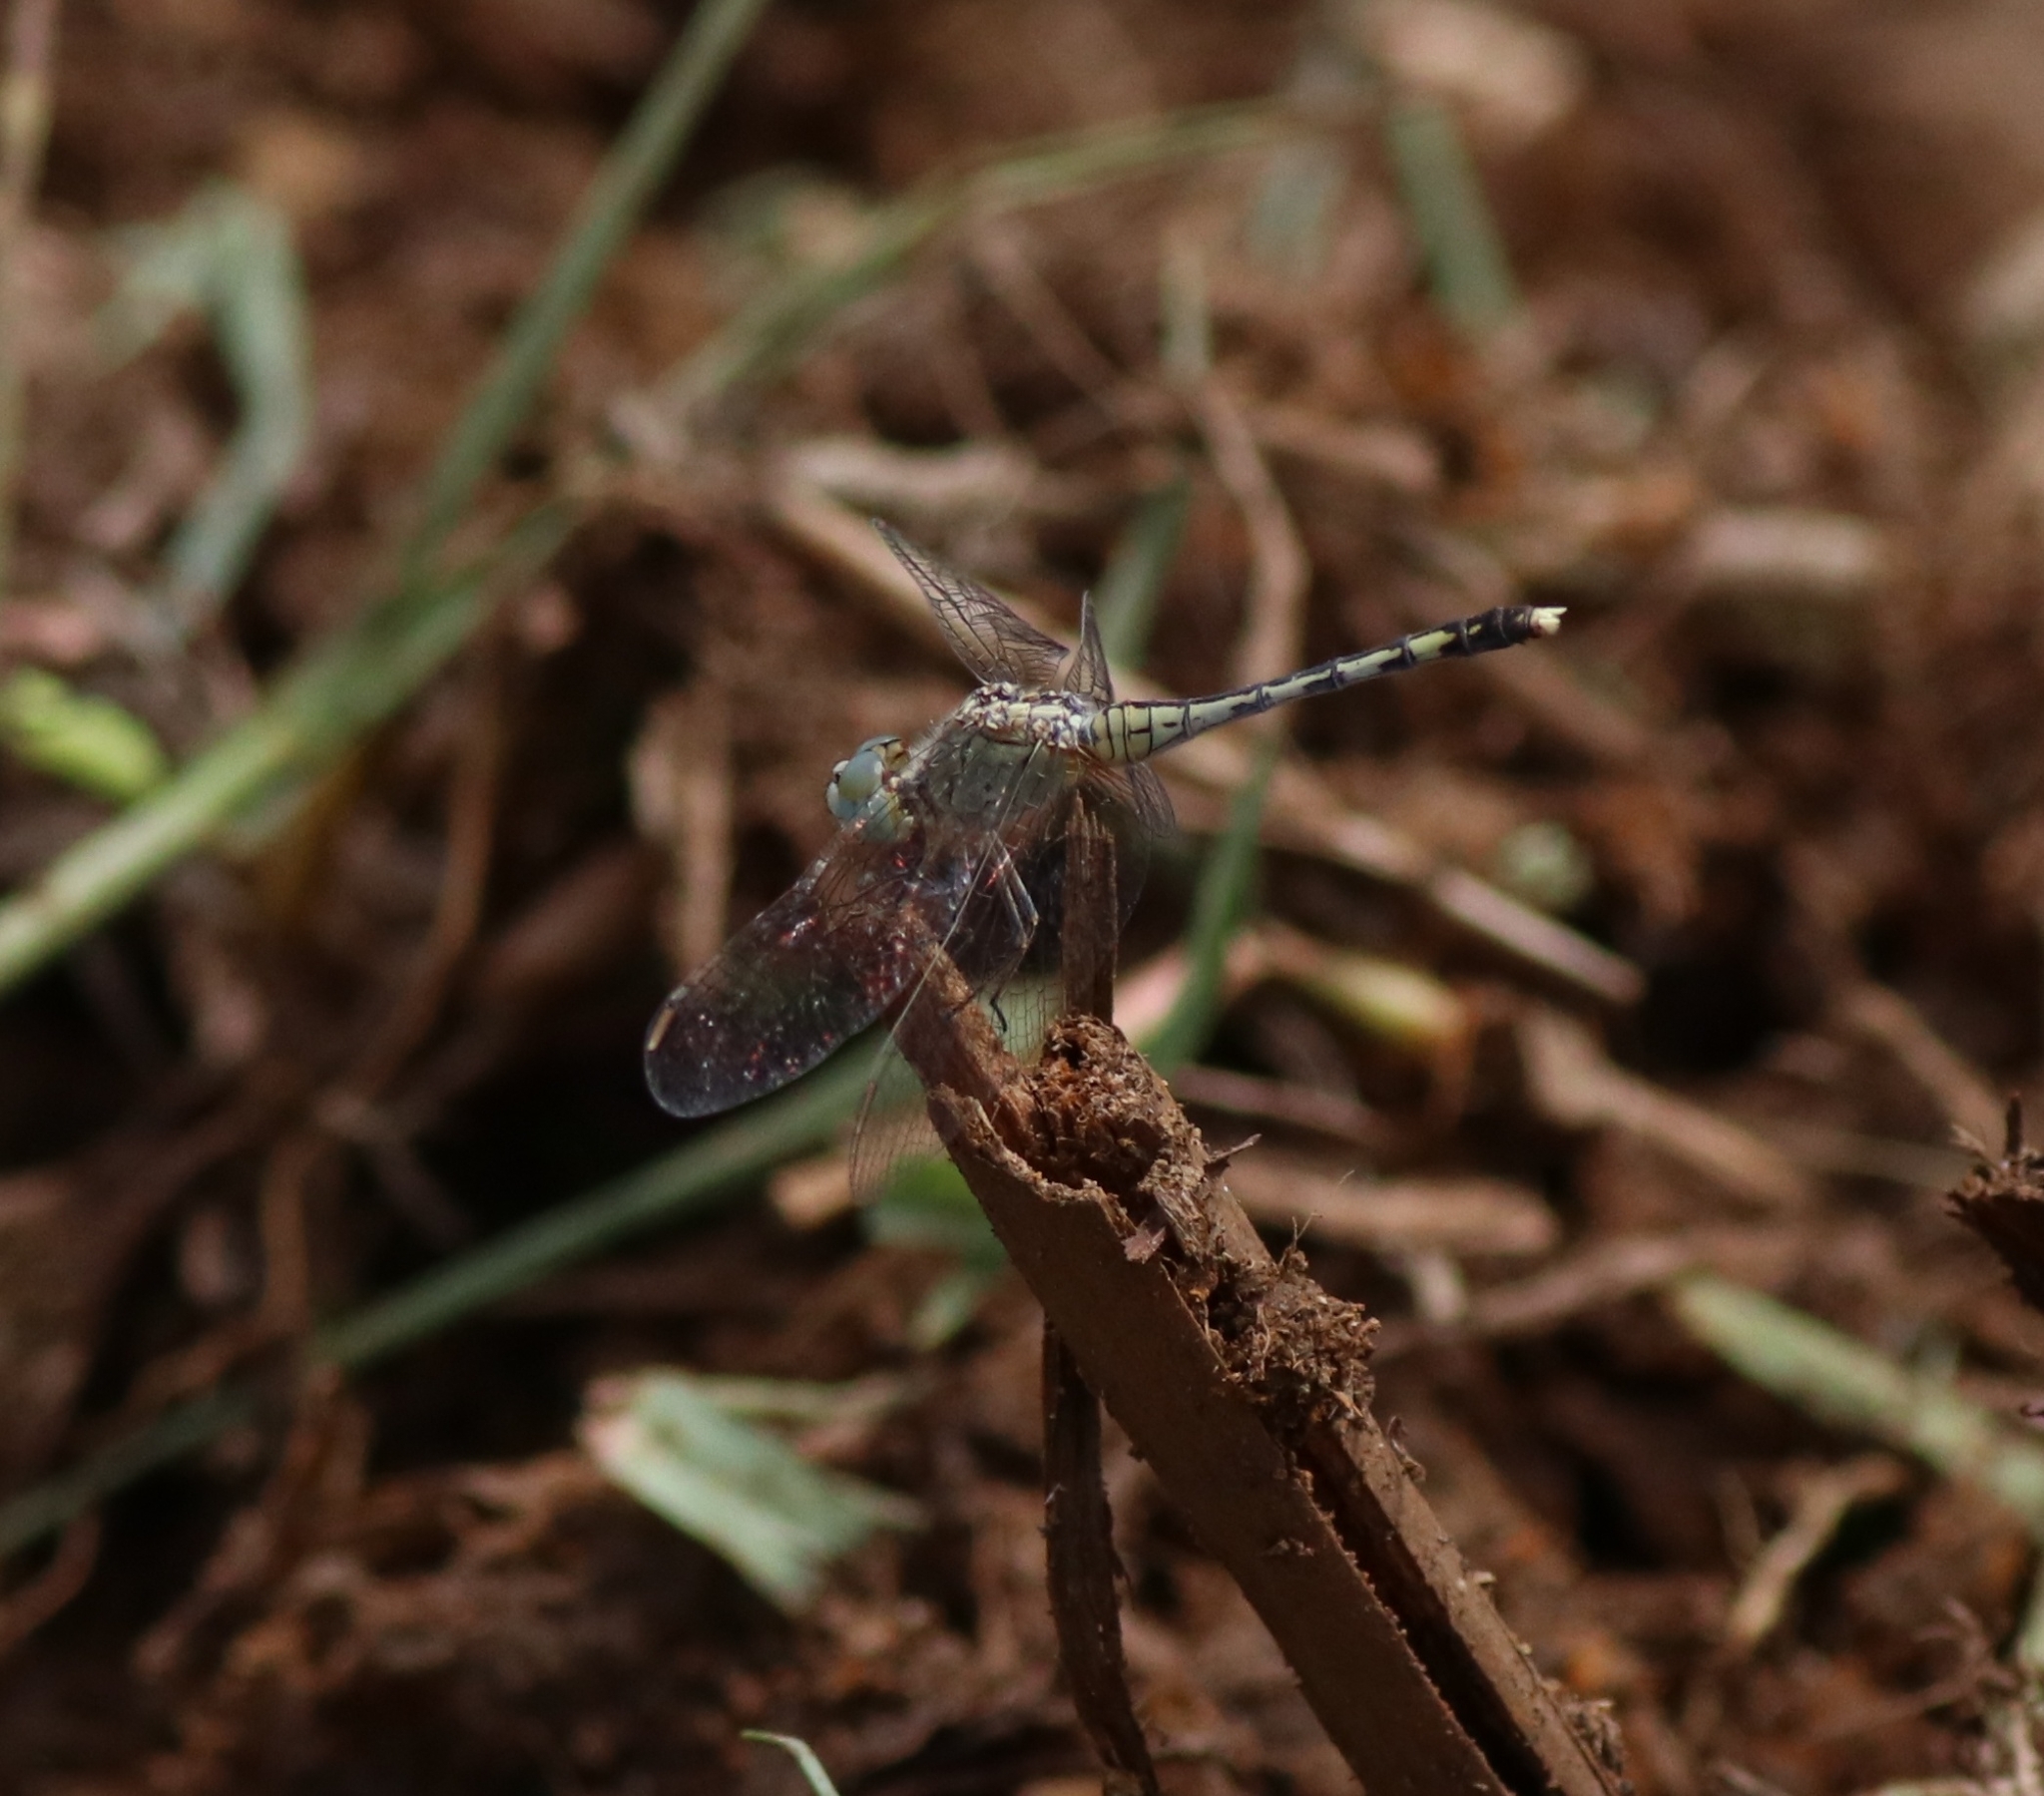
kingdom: Animalia
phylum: Arthropoda
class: Insecta
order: Odonata
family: Libellulidae
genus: Diplacodes
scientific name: Diplacodes trivialis
